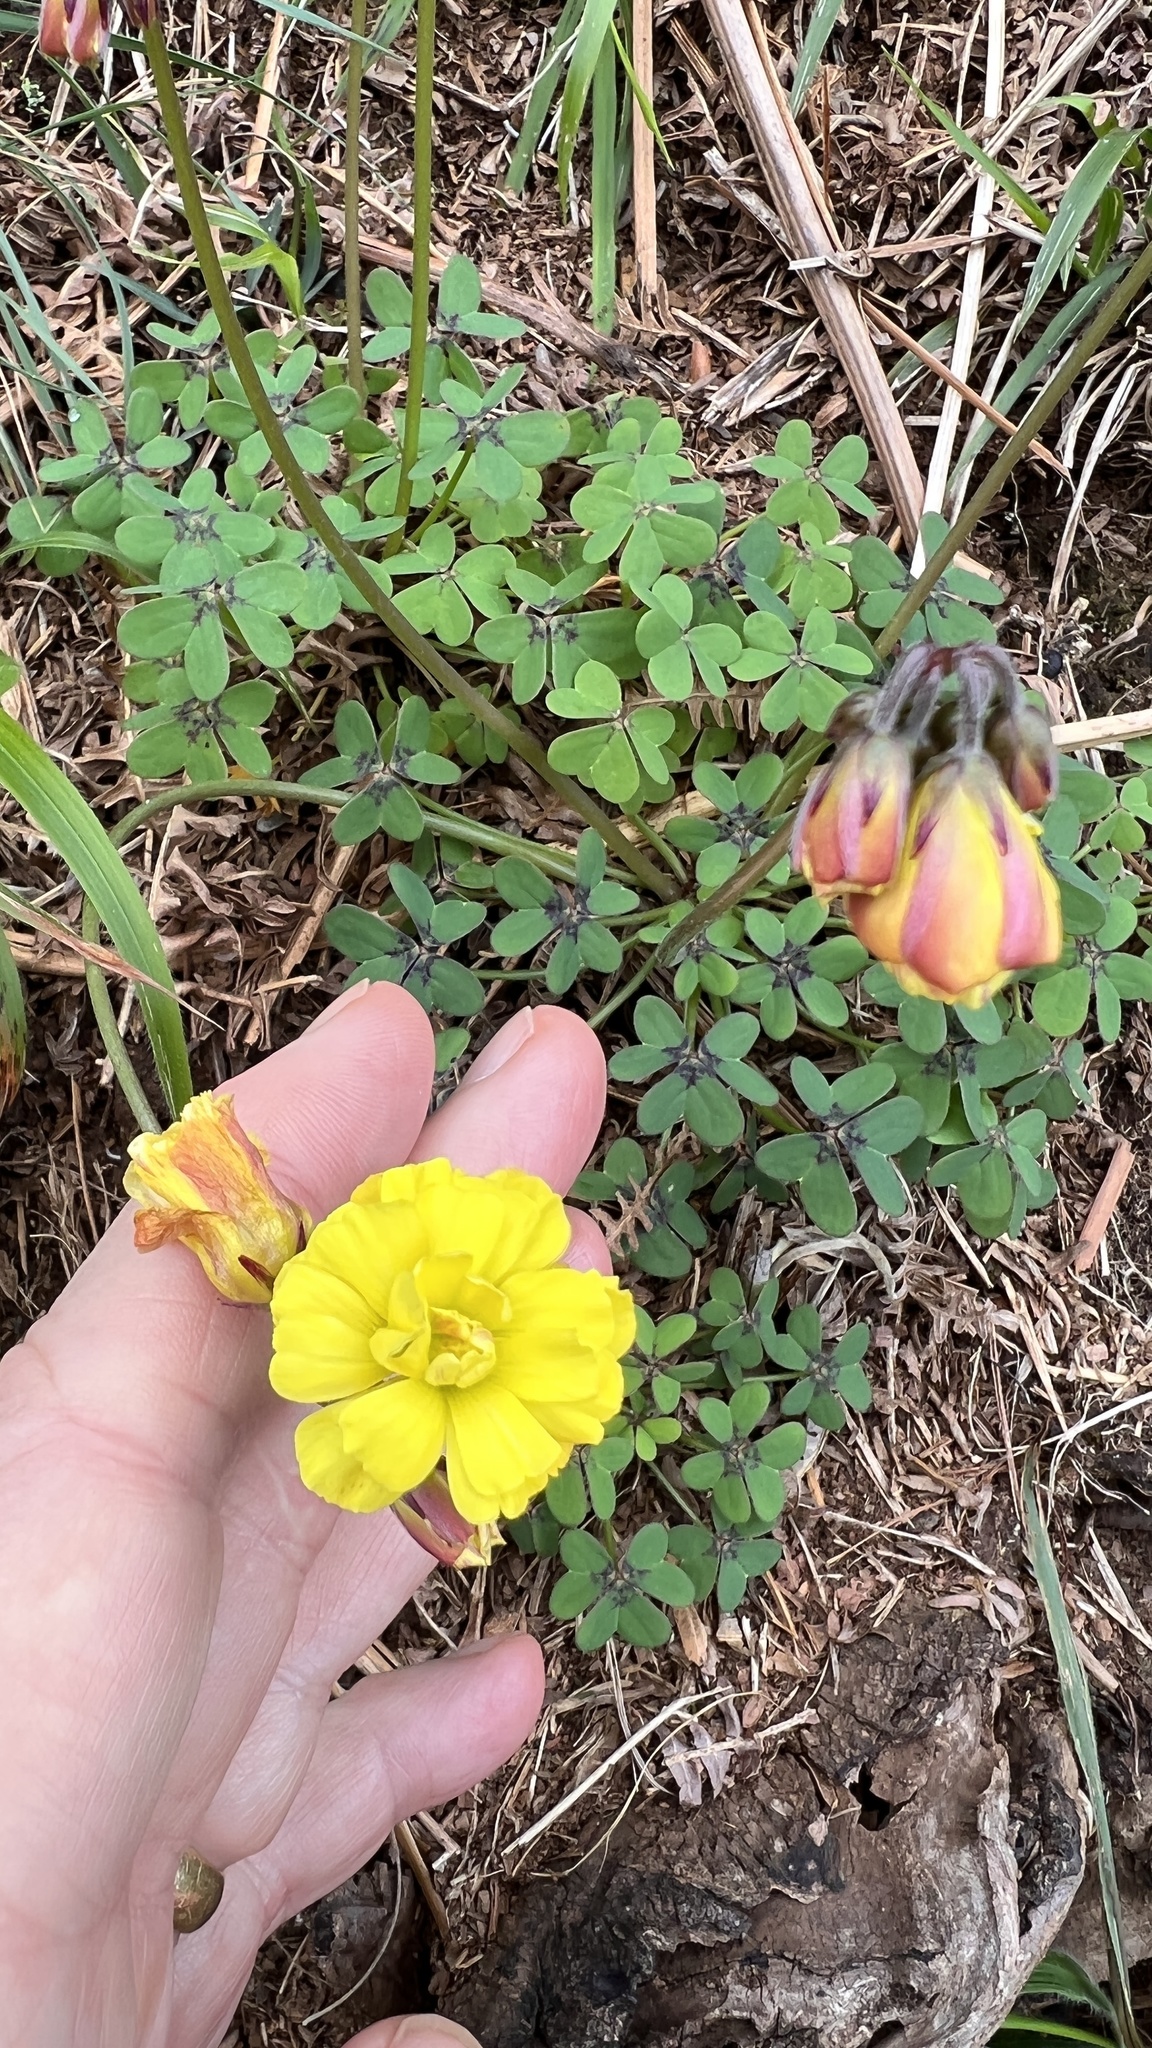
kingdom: Plantae
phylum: Tracheophyta
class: Magnoliopsida
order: Oxalidales
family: Oxalidaceae
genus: Oxalis
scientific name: Oxalis pes-caprae
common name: Bermuda-buttercup
